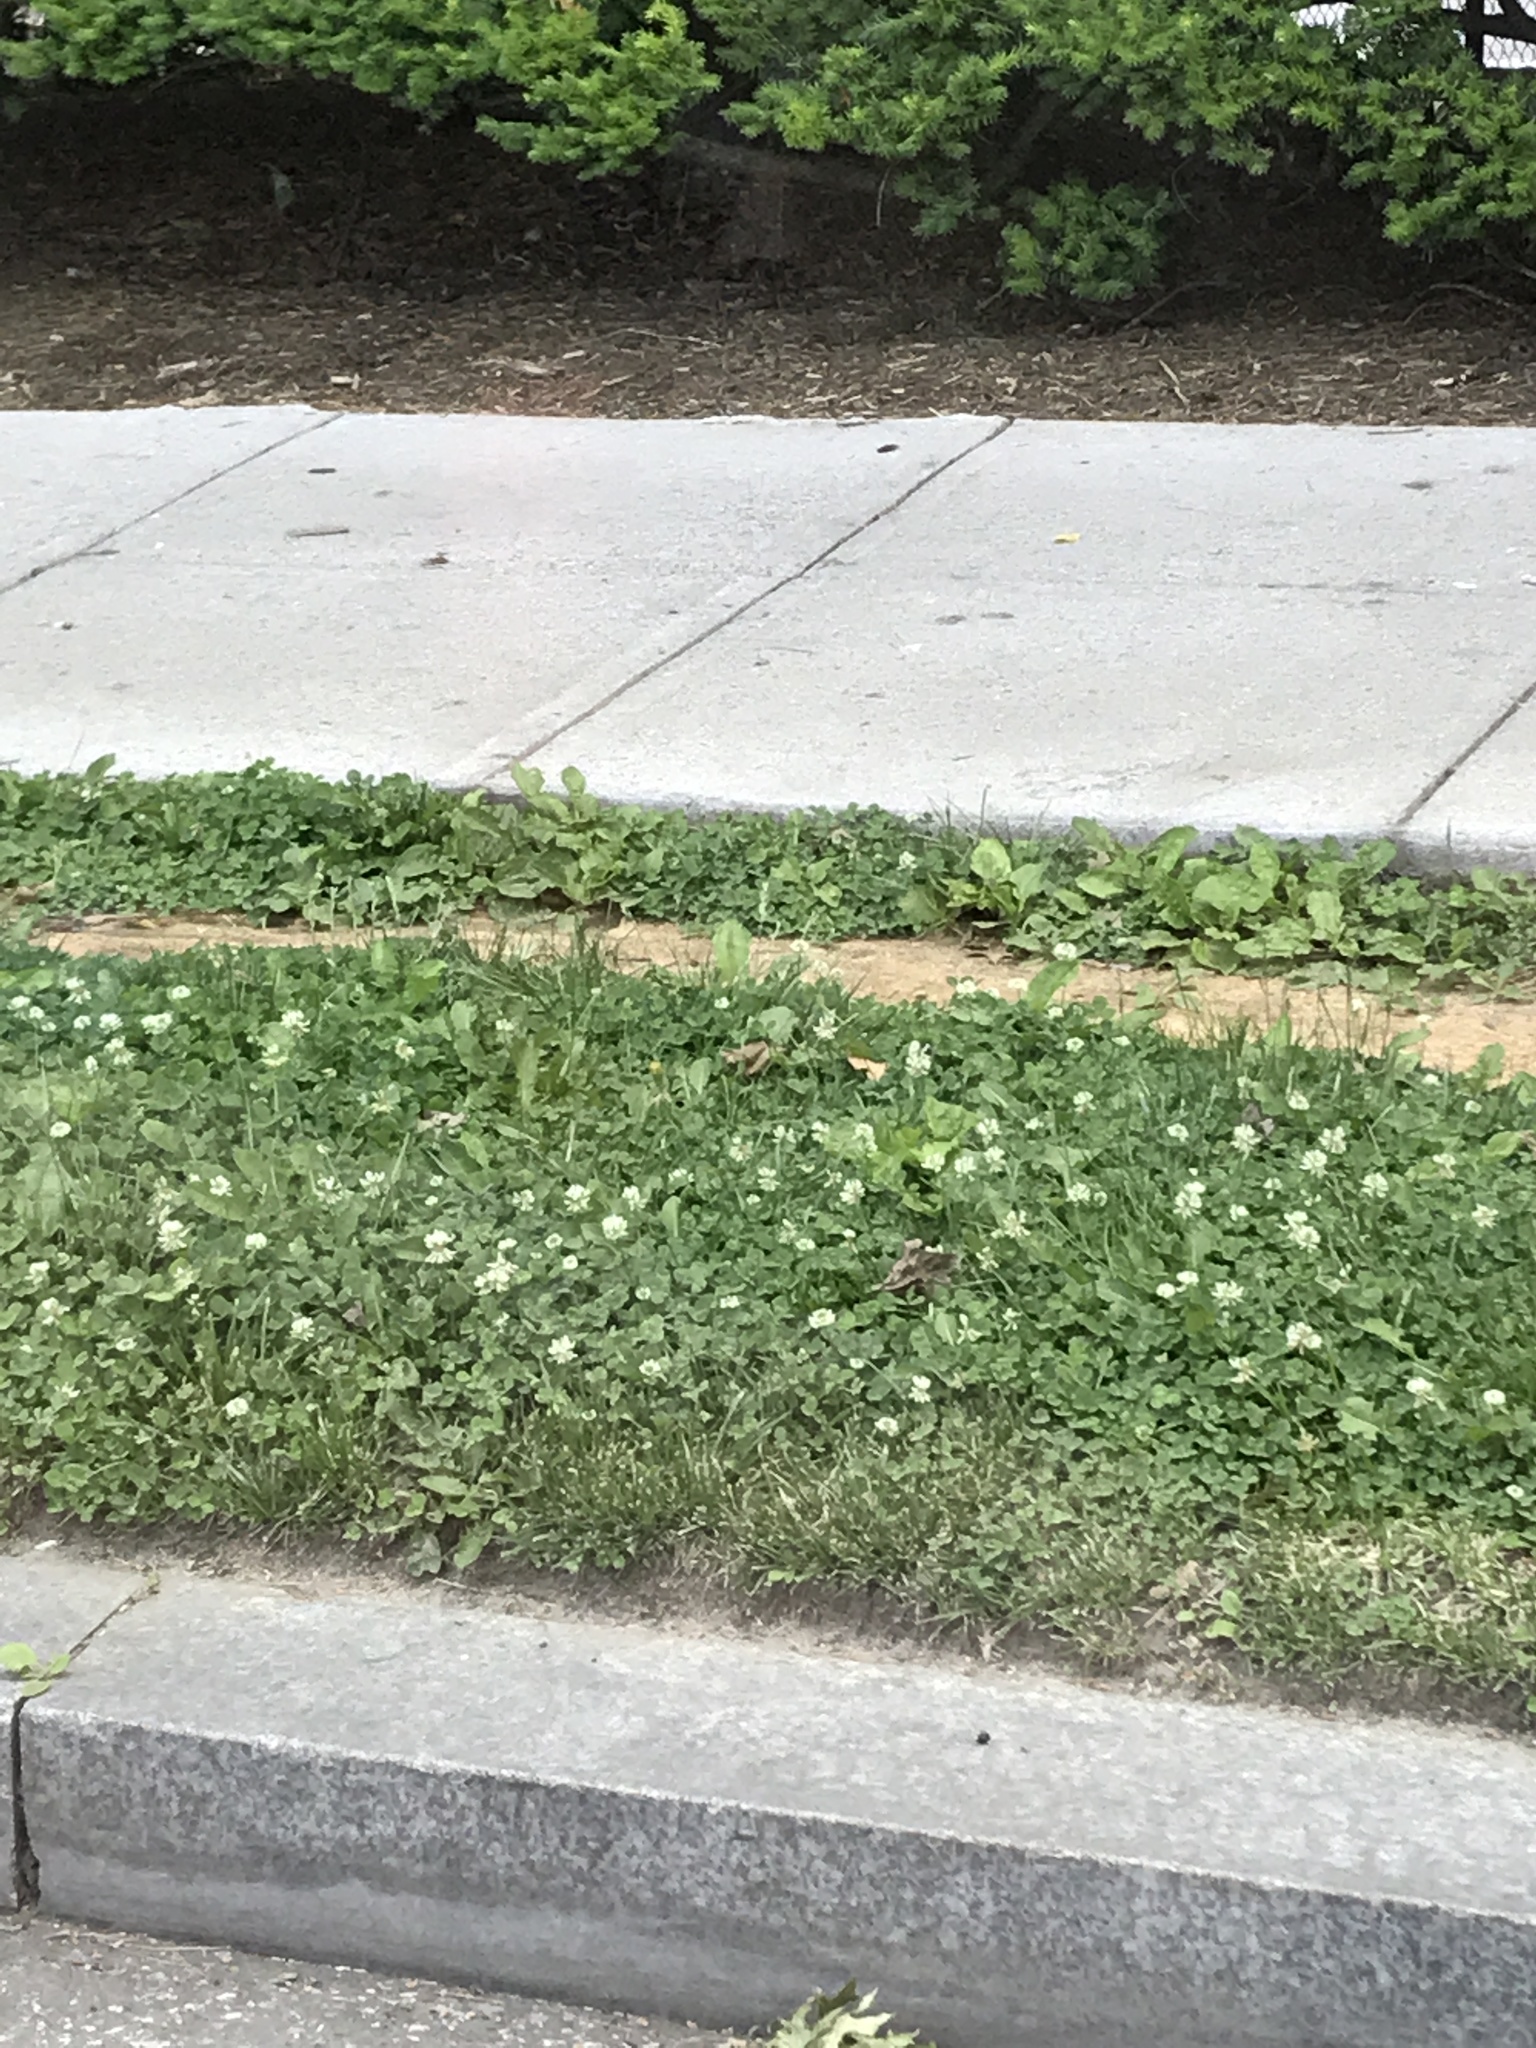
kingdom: Plantae
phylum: Tracheophyta
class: Magnoliopsida
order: Fabales
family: Fabaceae
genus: Trifolium
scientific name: Trifolium repens
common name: White clover
